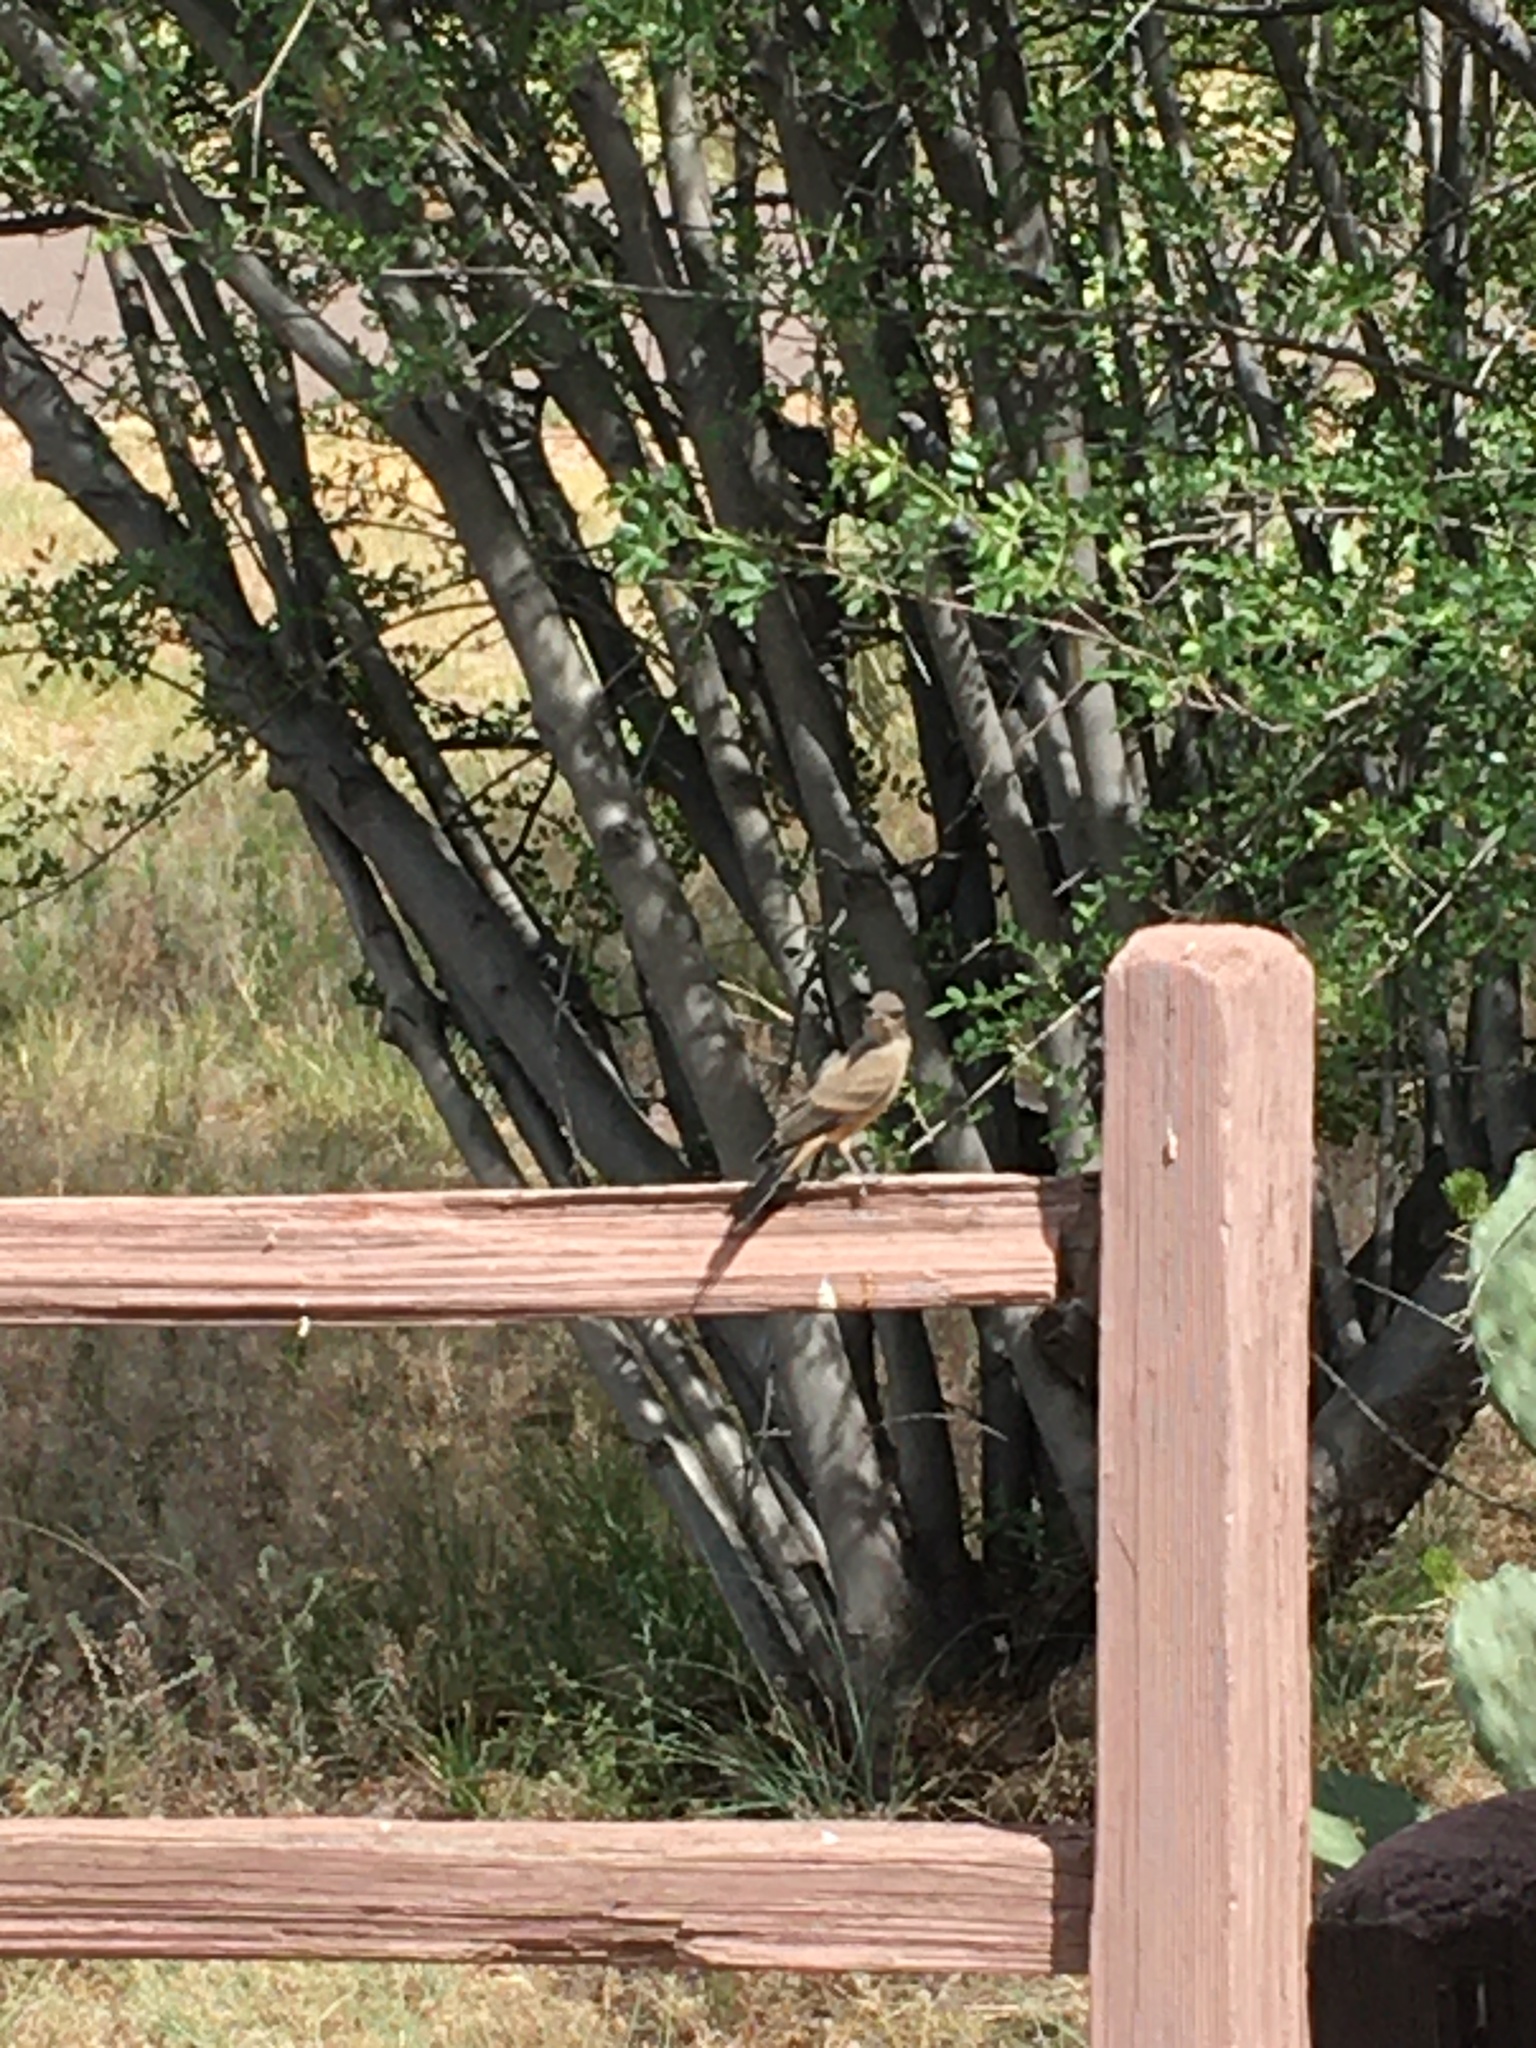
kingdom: Animalia
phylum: Chordata
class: Aves
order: Passeriformes
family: Tyrannidae
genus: Sayornis
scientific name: Sayornis saya
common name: Say's phoebe
